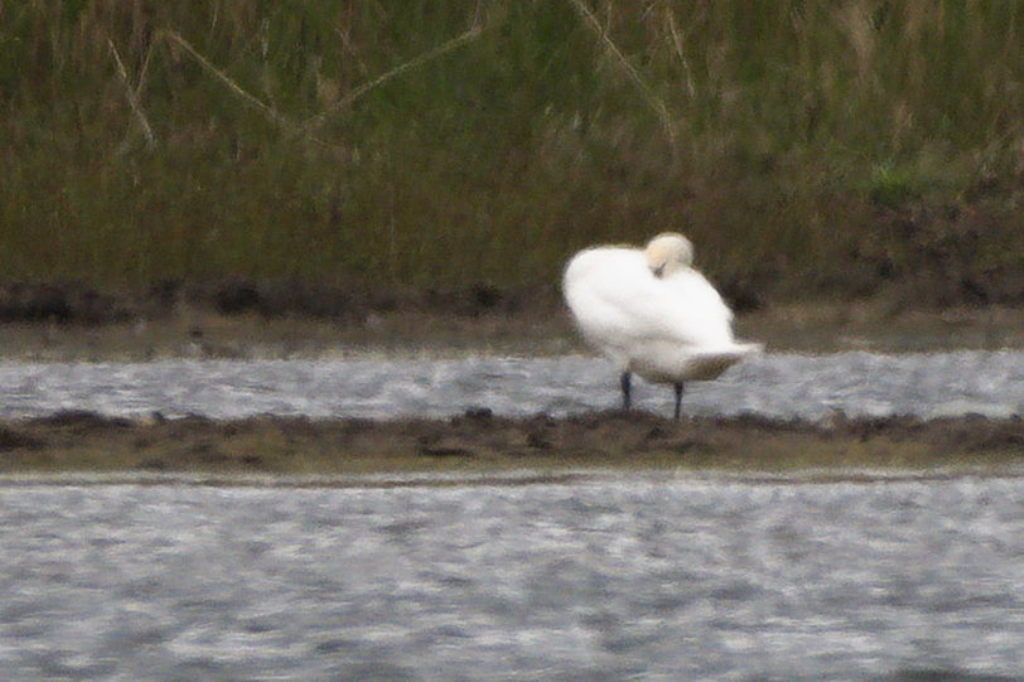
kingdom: Animalia
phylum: Chordata
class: Aves
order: Anseriformes
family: Anatidae
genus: Cygnus
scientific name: Cygnus olor
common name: Mute swan
